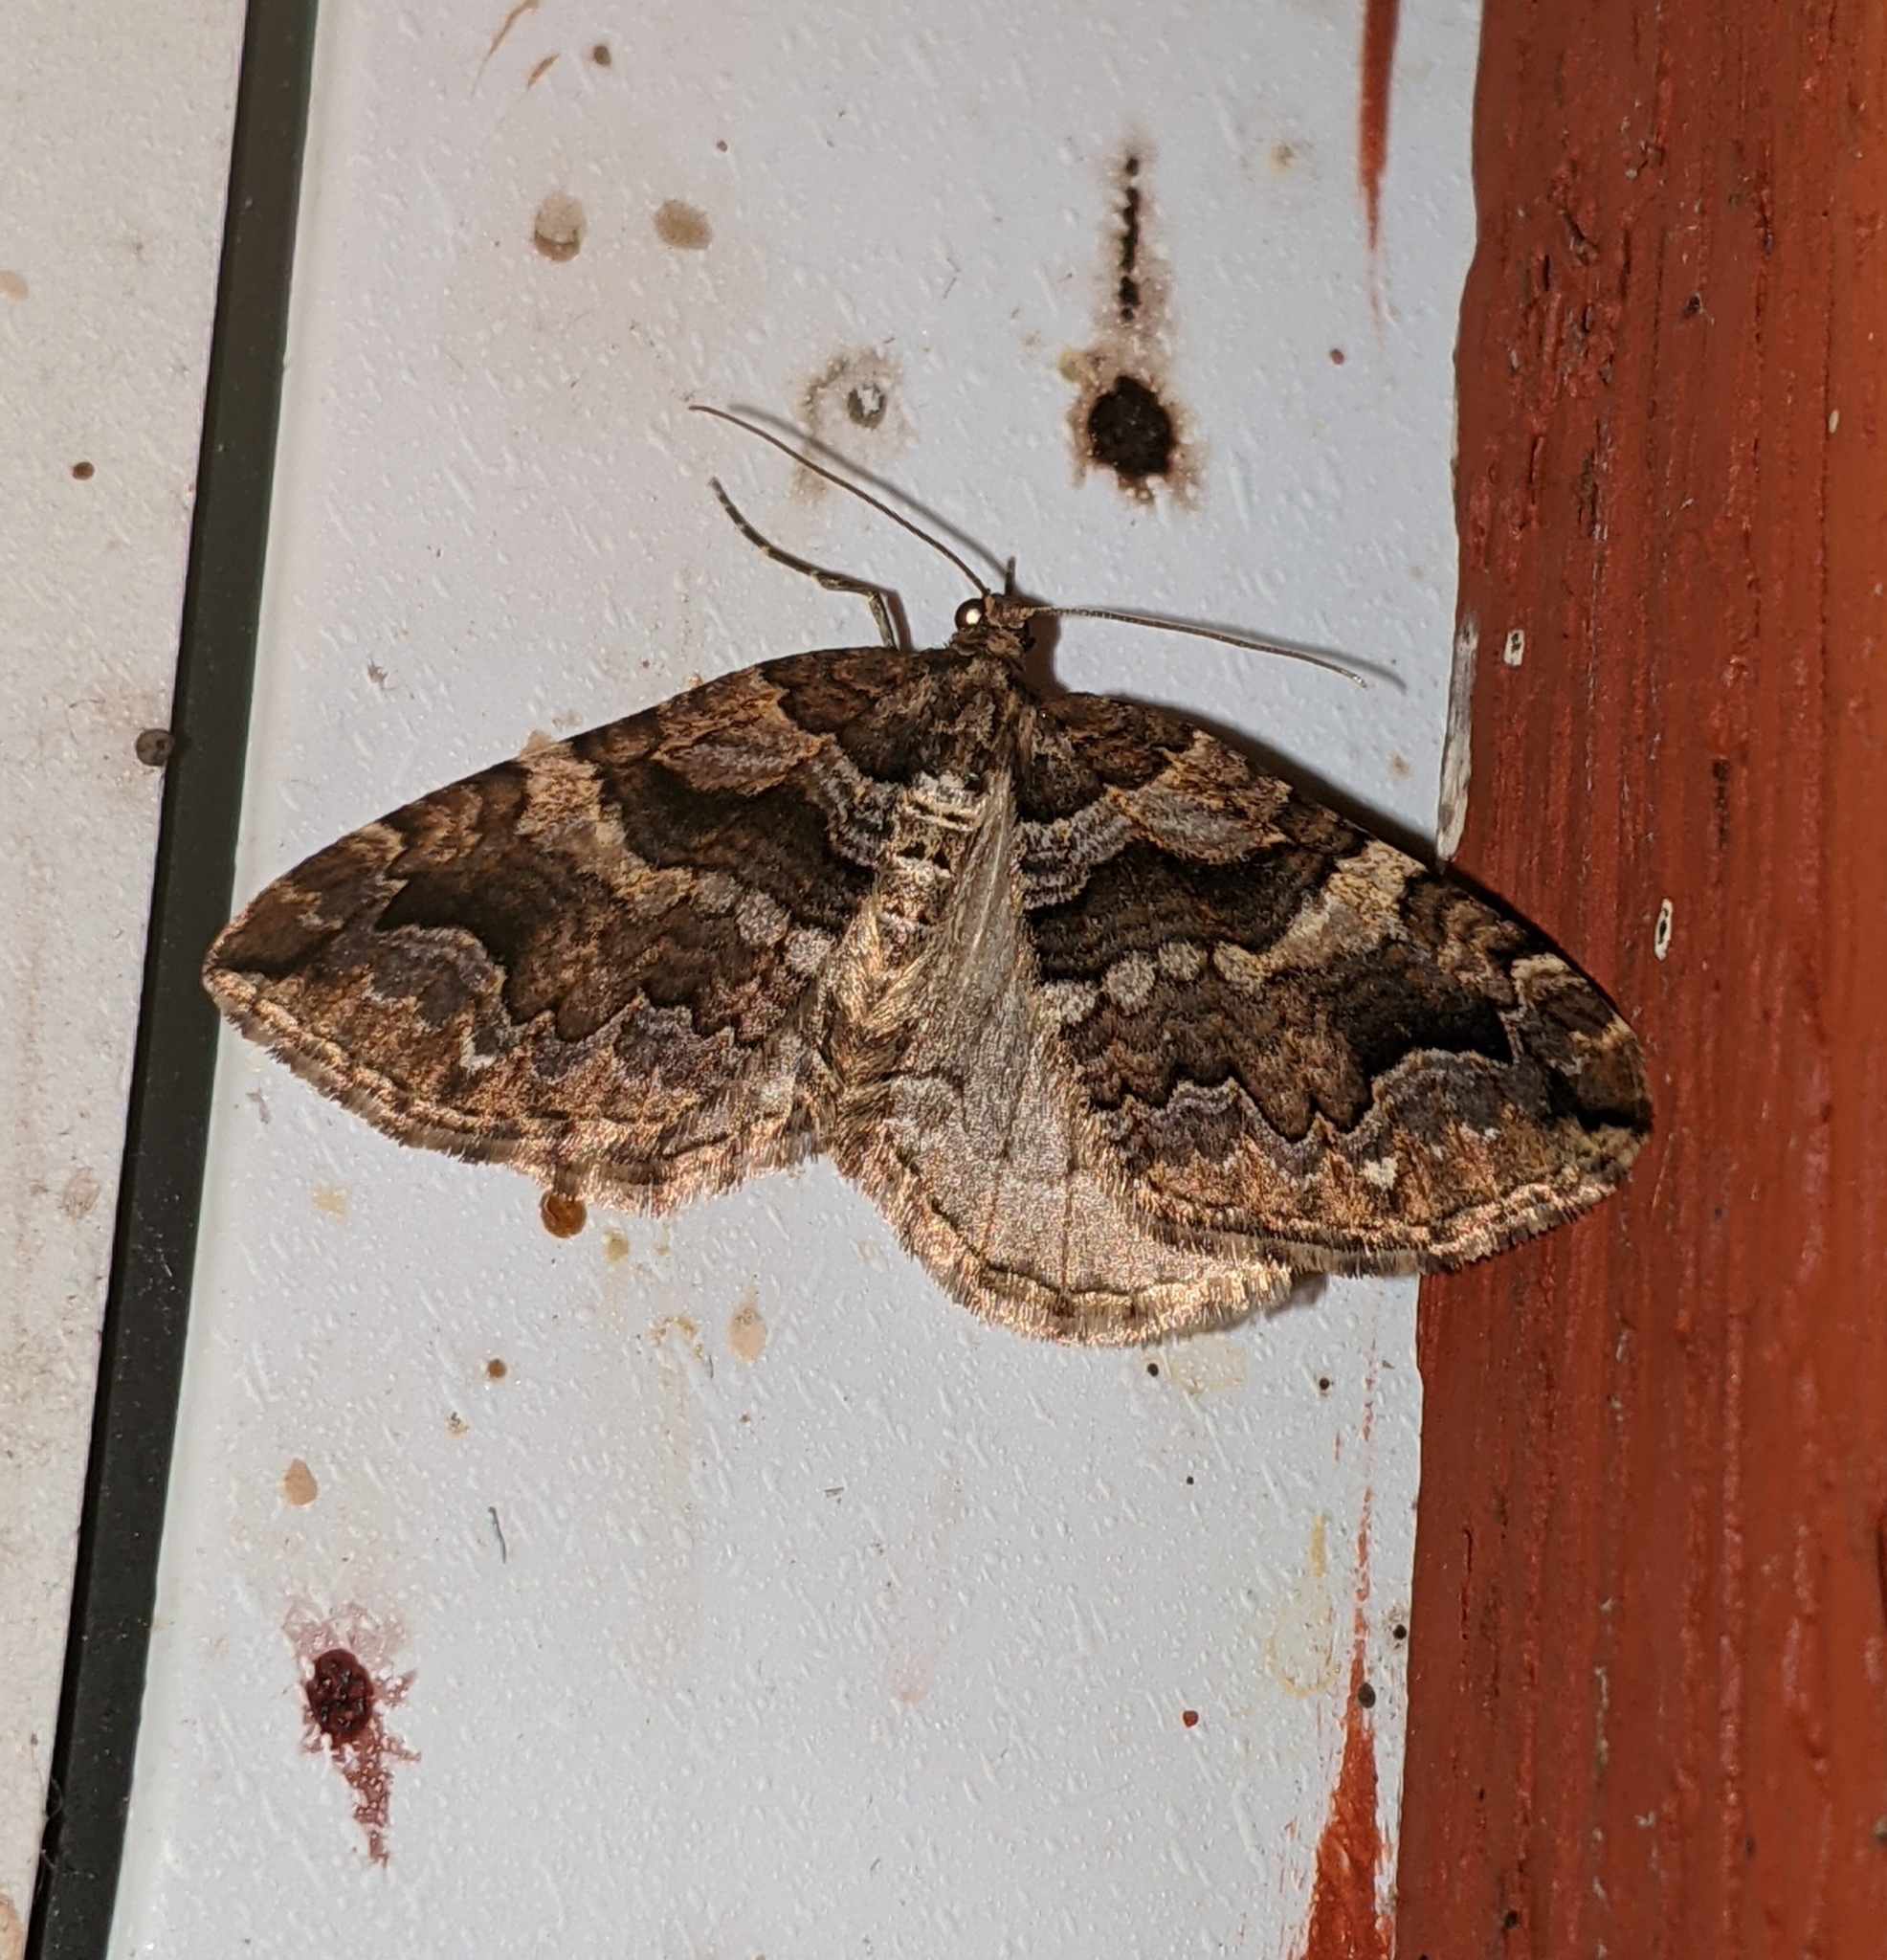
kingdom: Animalia
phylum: Arthropoda
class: Insecta
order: Lepidoptera
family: Geometridae
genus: Anticlea
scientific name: Anticlea vasiliata
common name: Variable carpet
